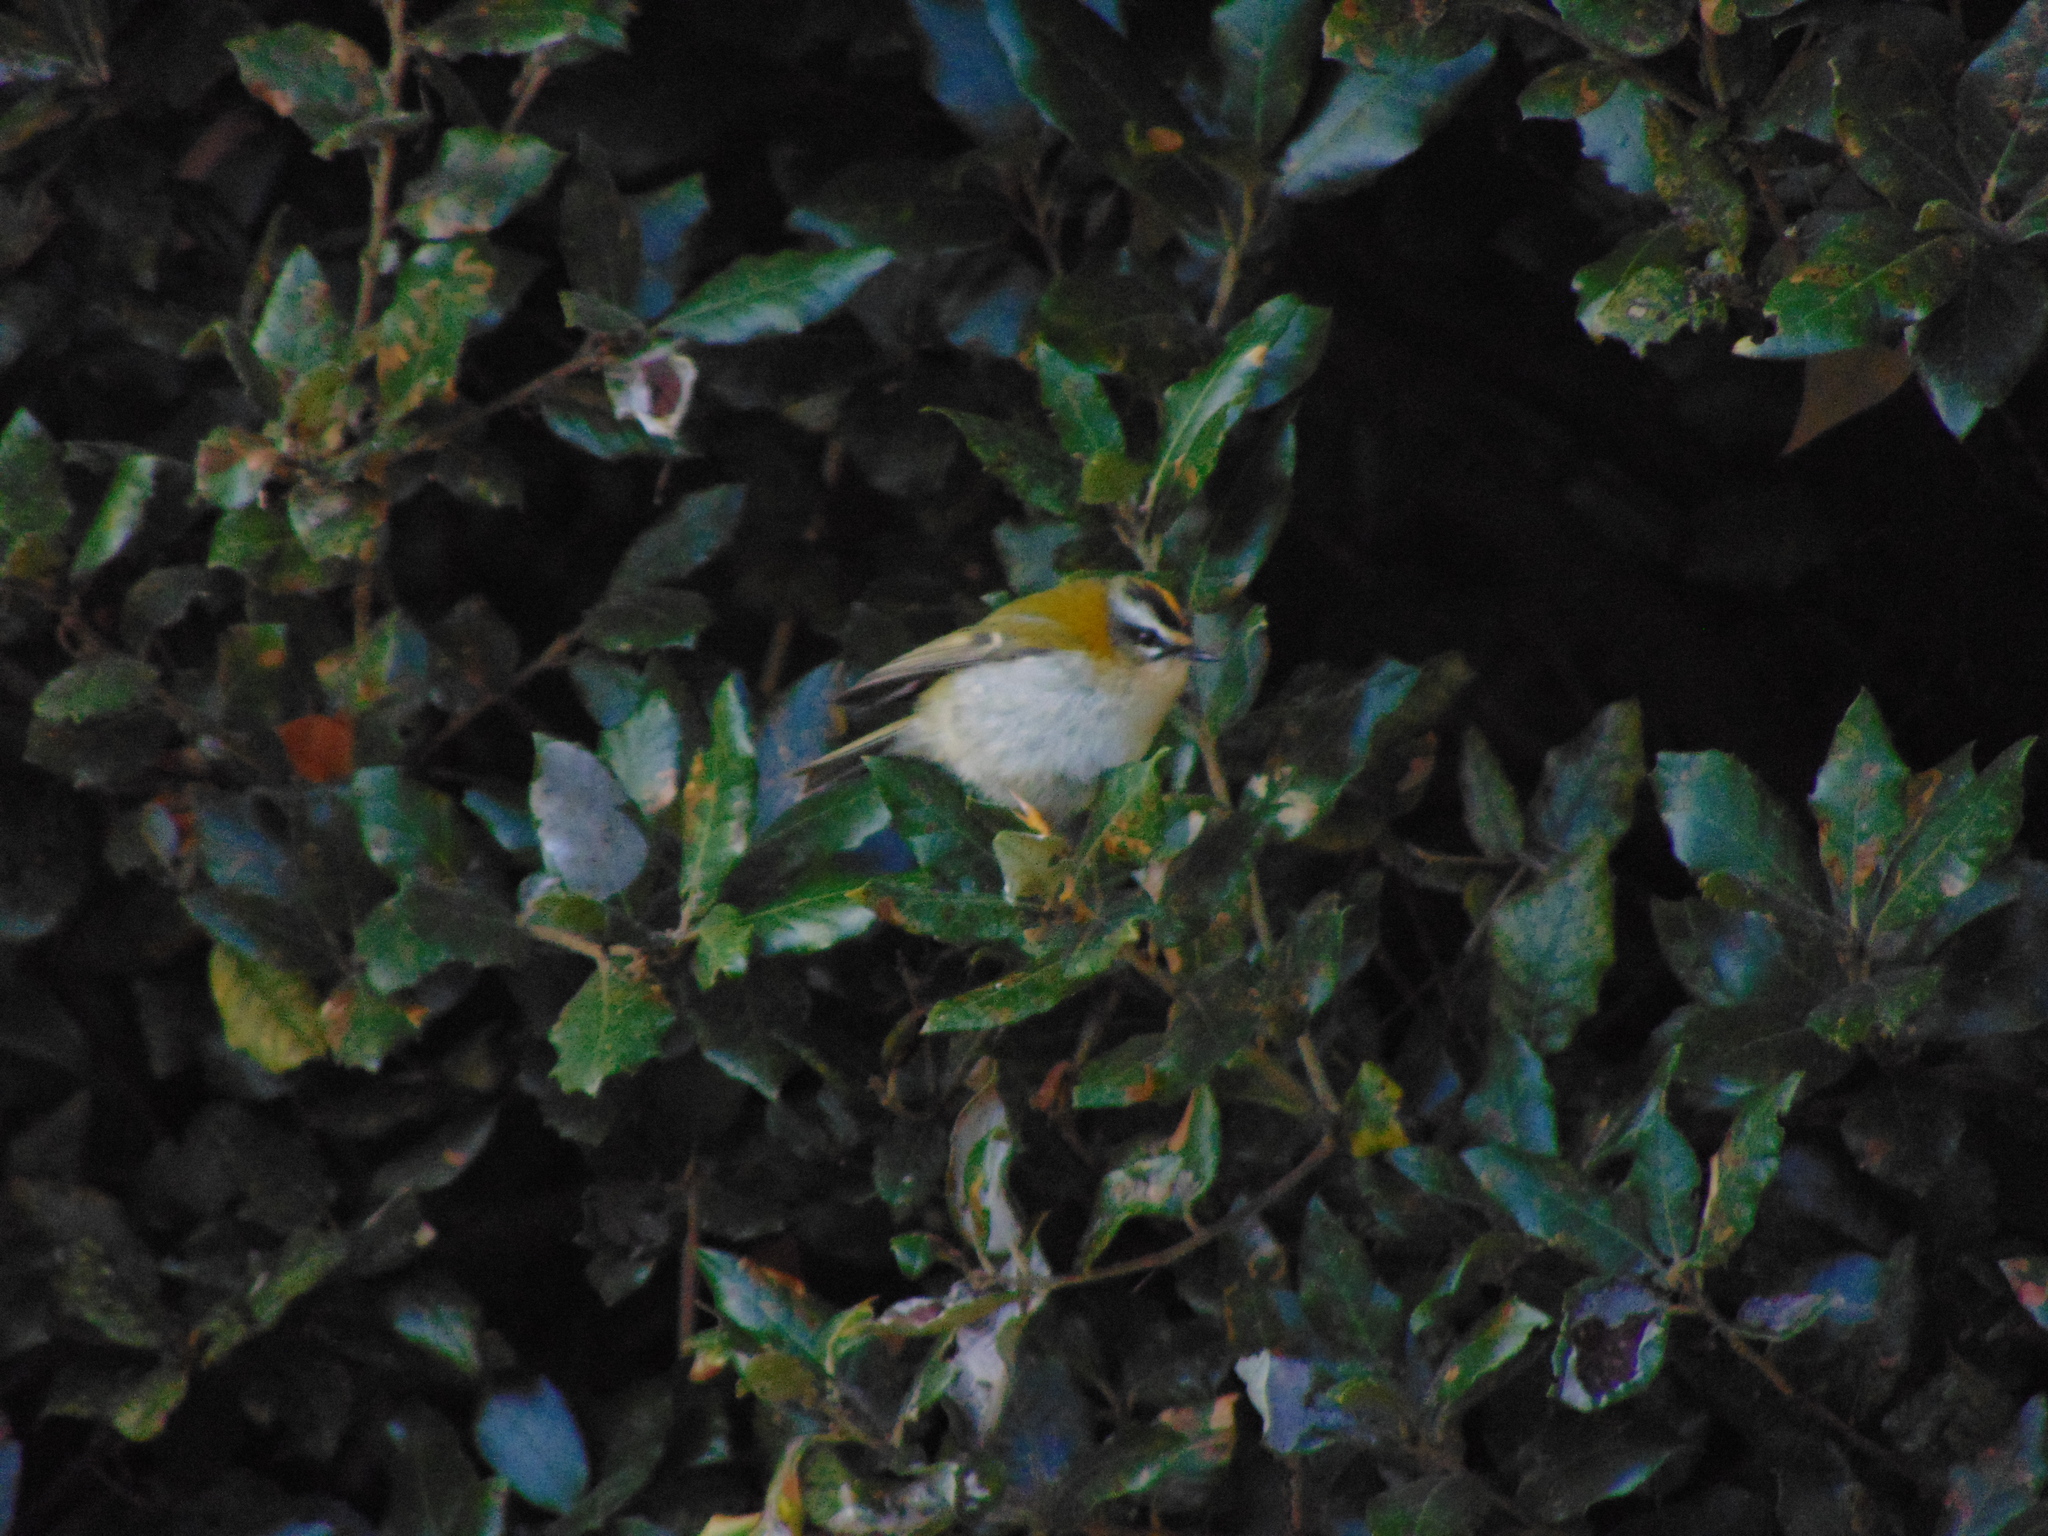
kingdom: Animalia
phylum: Chordata
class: Aves
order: Passeriformes
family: Regulidae
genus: Regulus
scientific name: Regulus ignicapilla
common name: Firecrest
